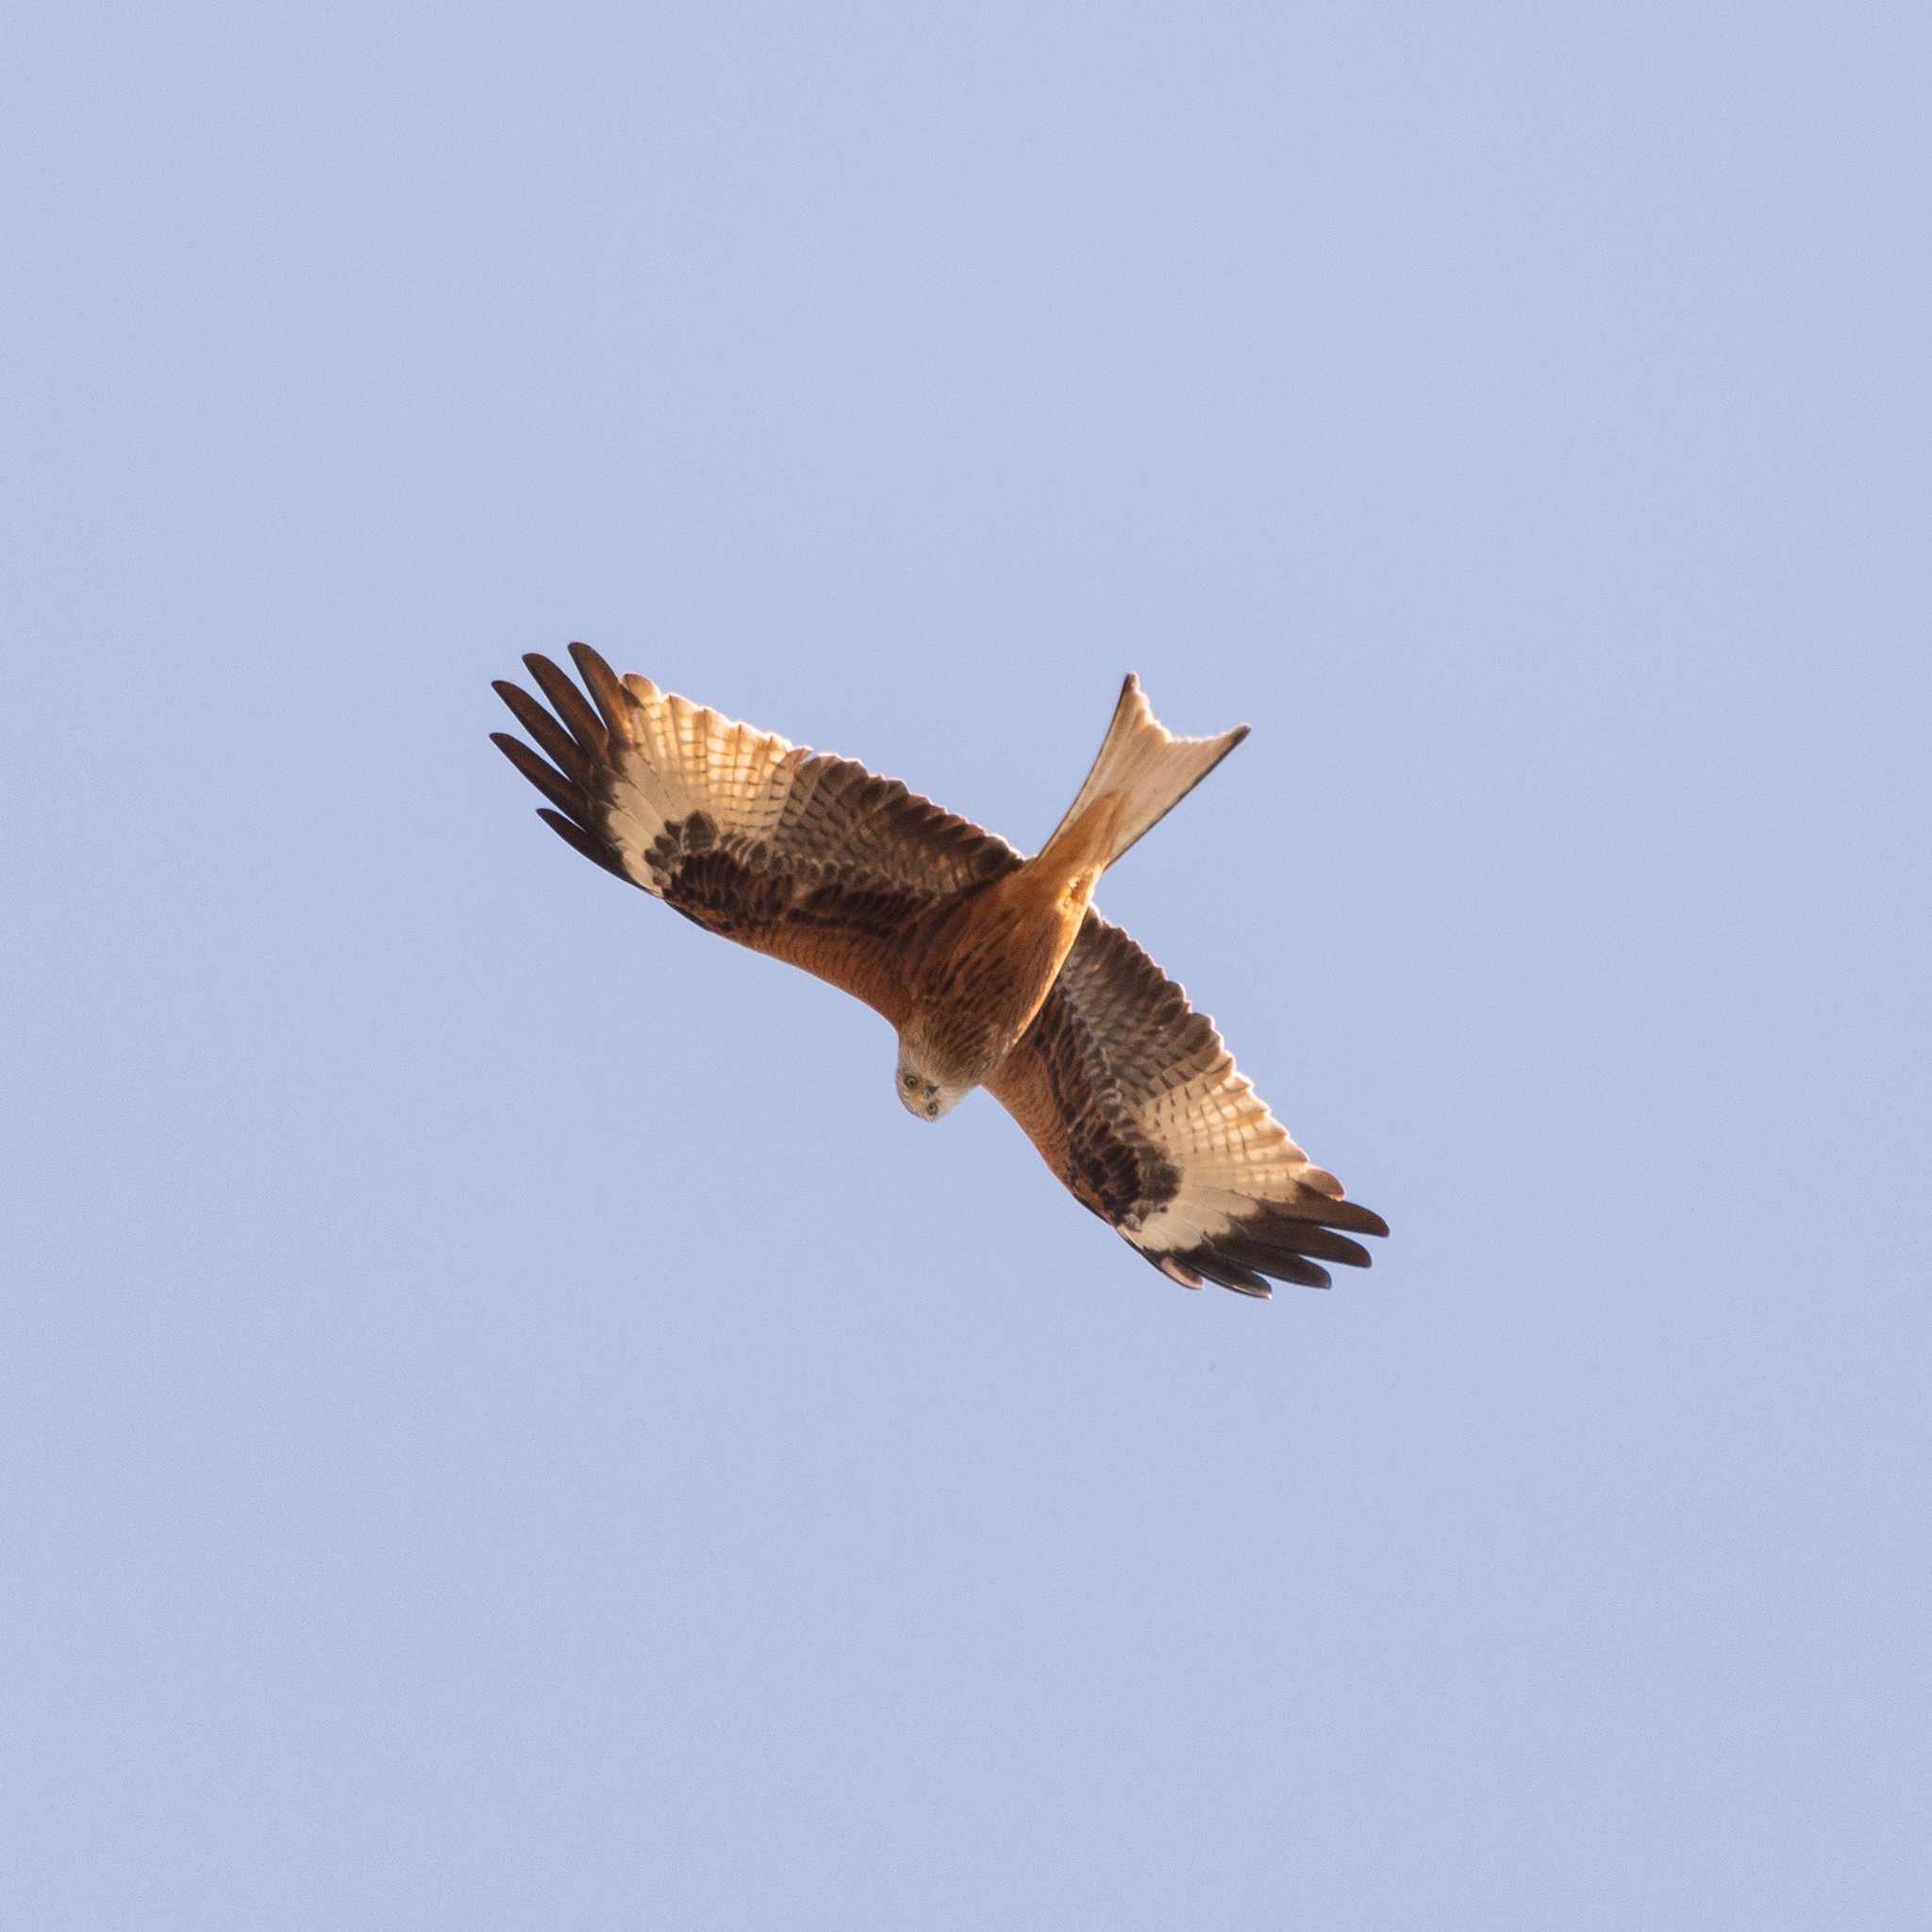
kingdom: Animalia
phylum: Chordata
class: Aves
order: Accipitriformes
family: Accipitridae
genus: Milvus
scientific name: Milvus milvus
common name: Red kite
